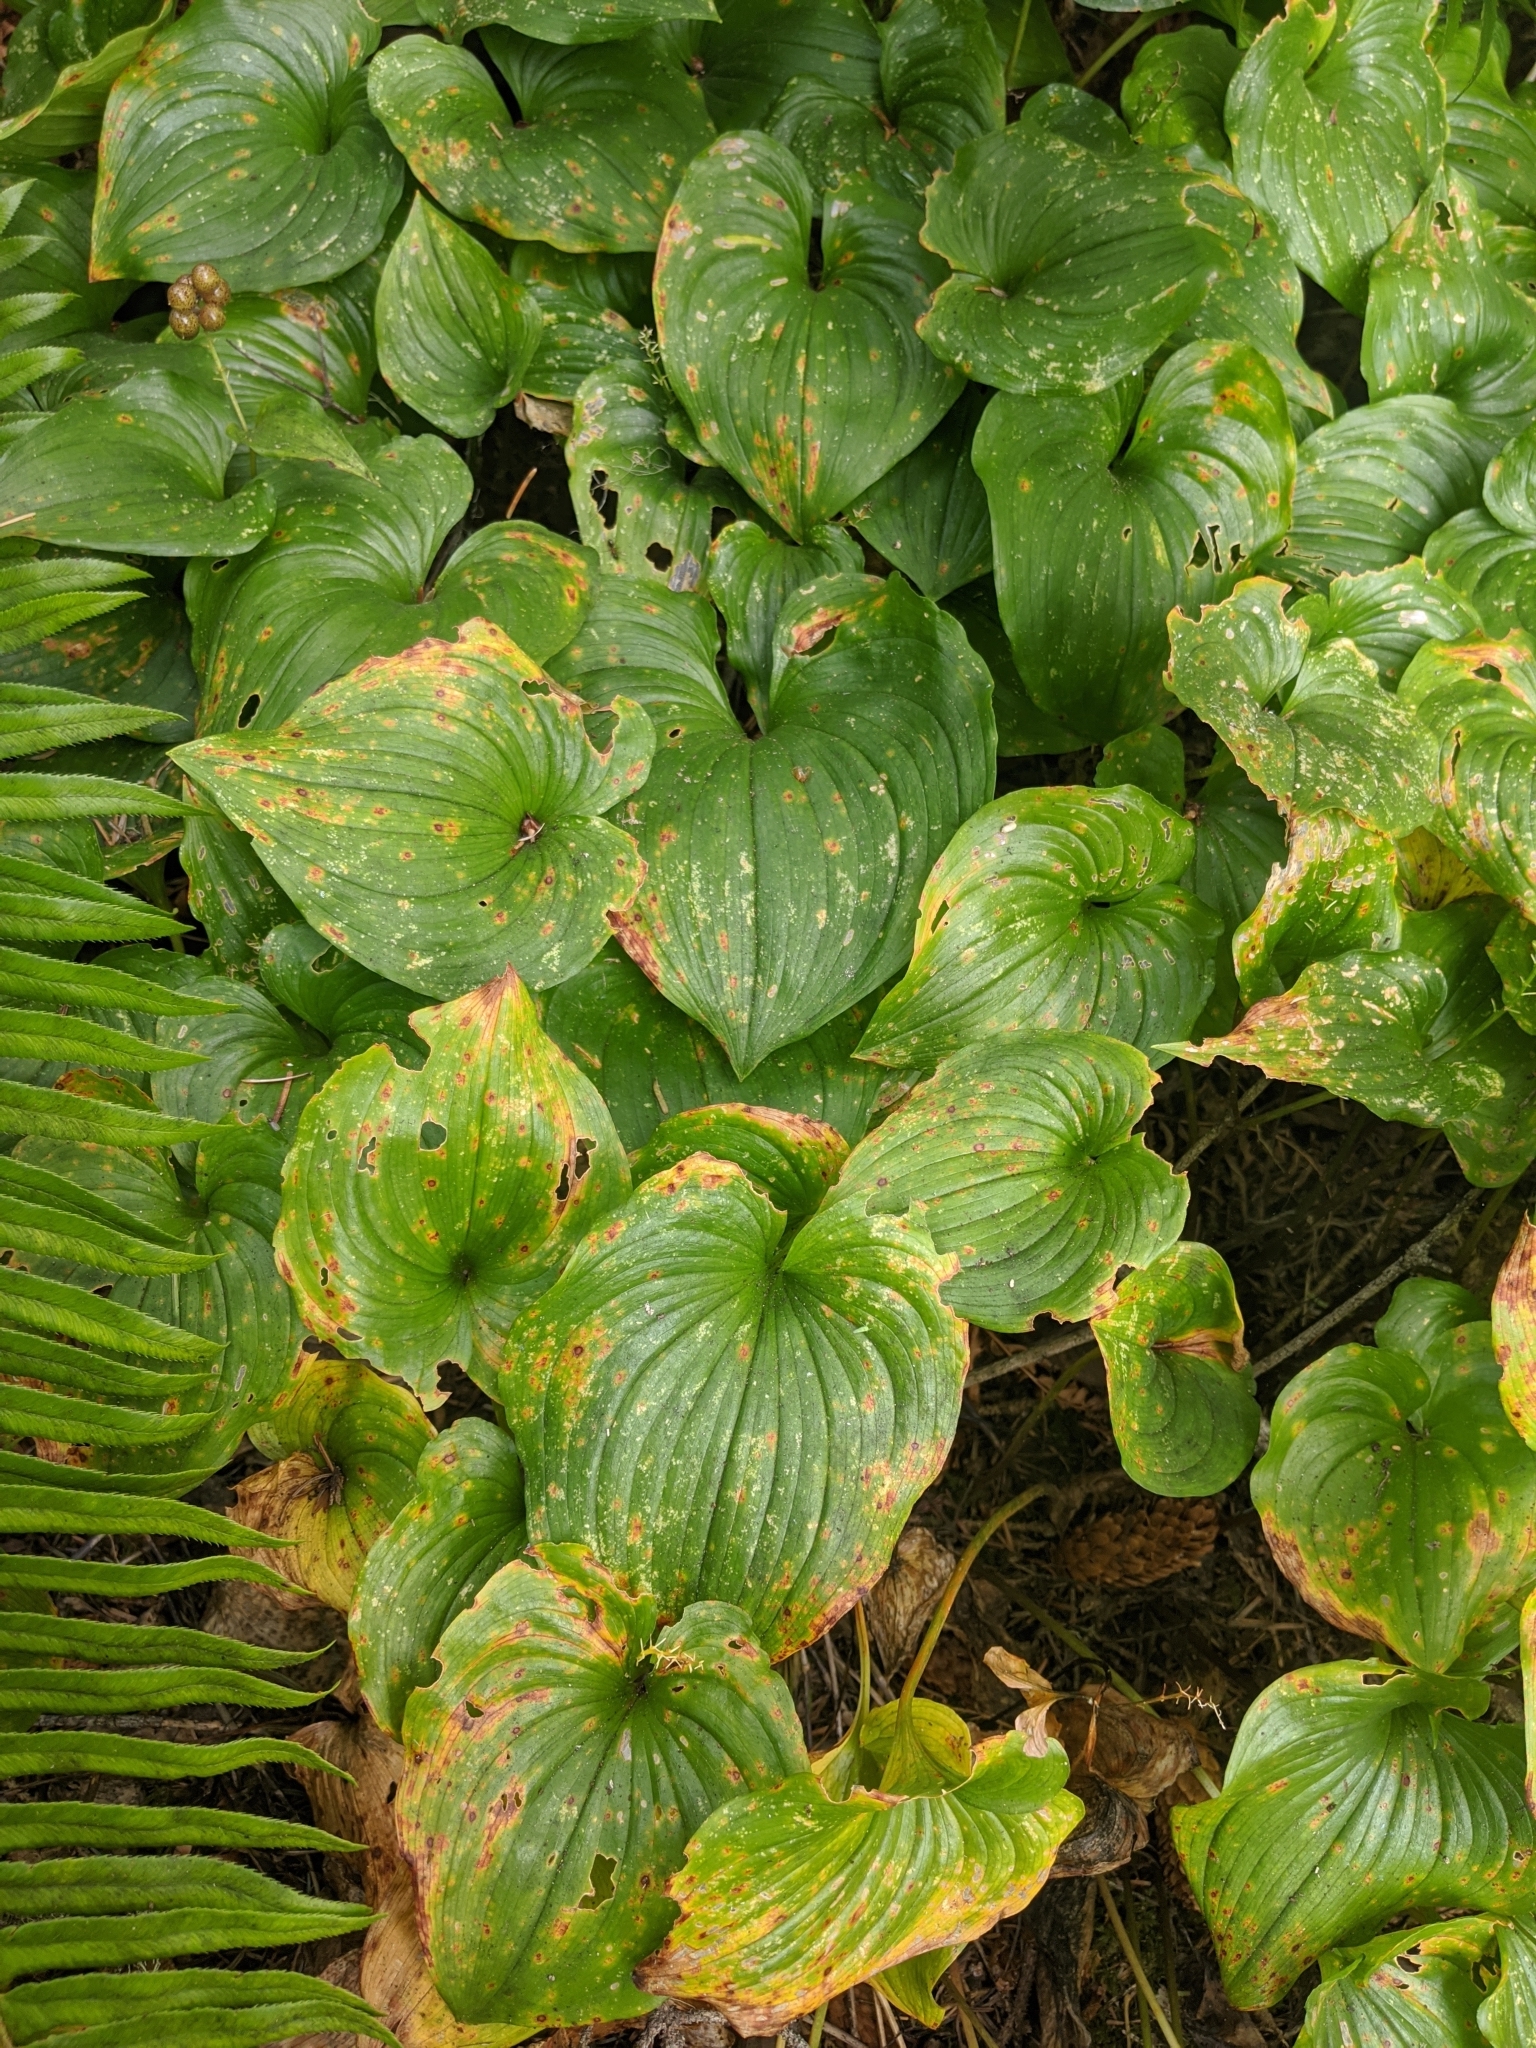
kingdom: Plantae
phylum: Tracheophyta
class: Liliopsida
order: Asparagales
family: Asparagaceae
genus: Maianthemum
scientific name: Maianthemum dilatatum
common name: False lily-of-the-valley
